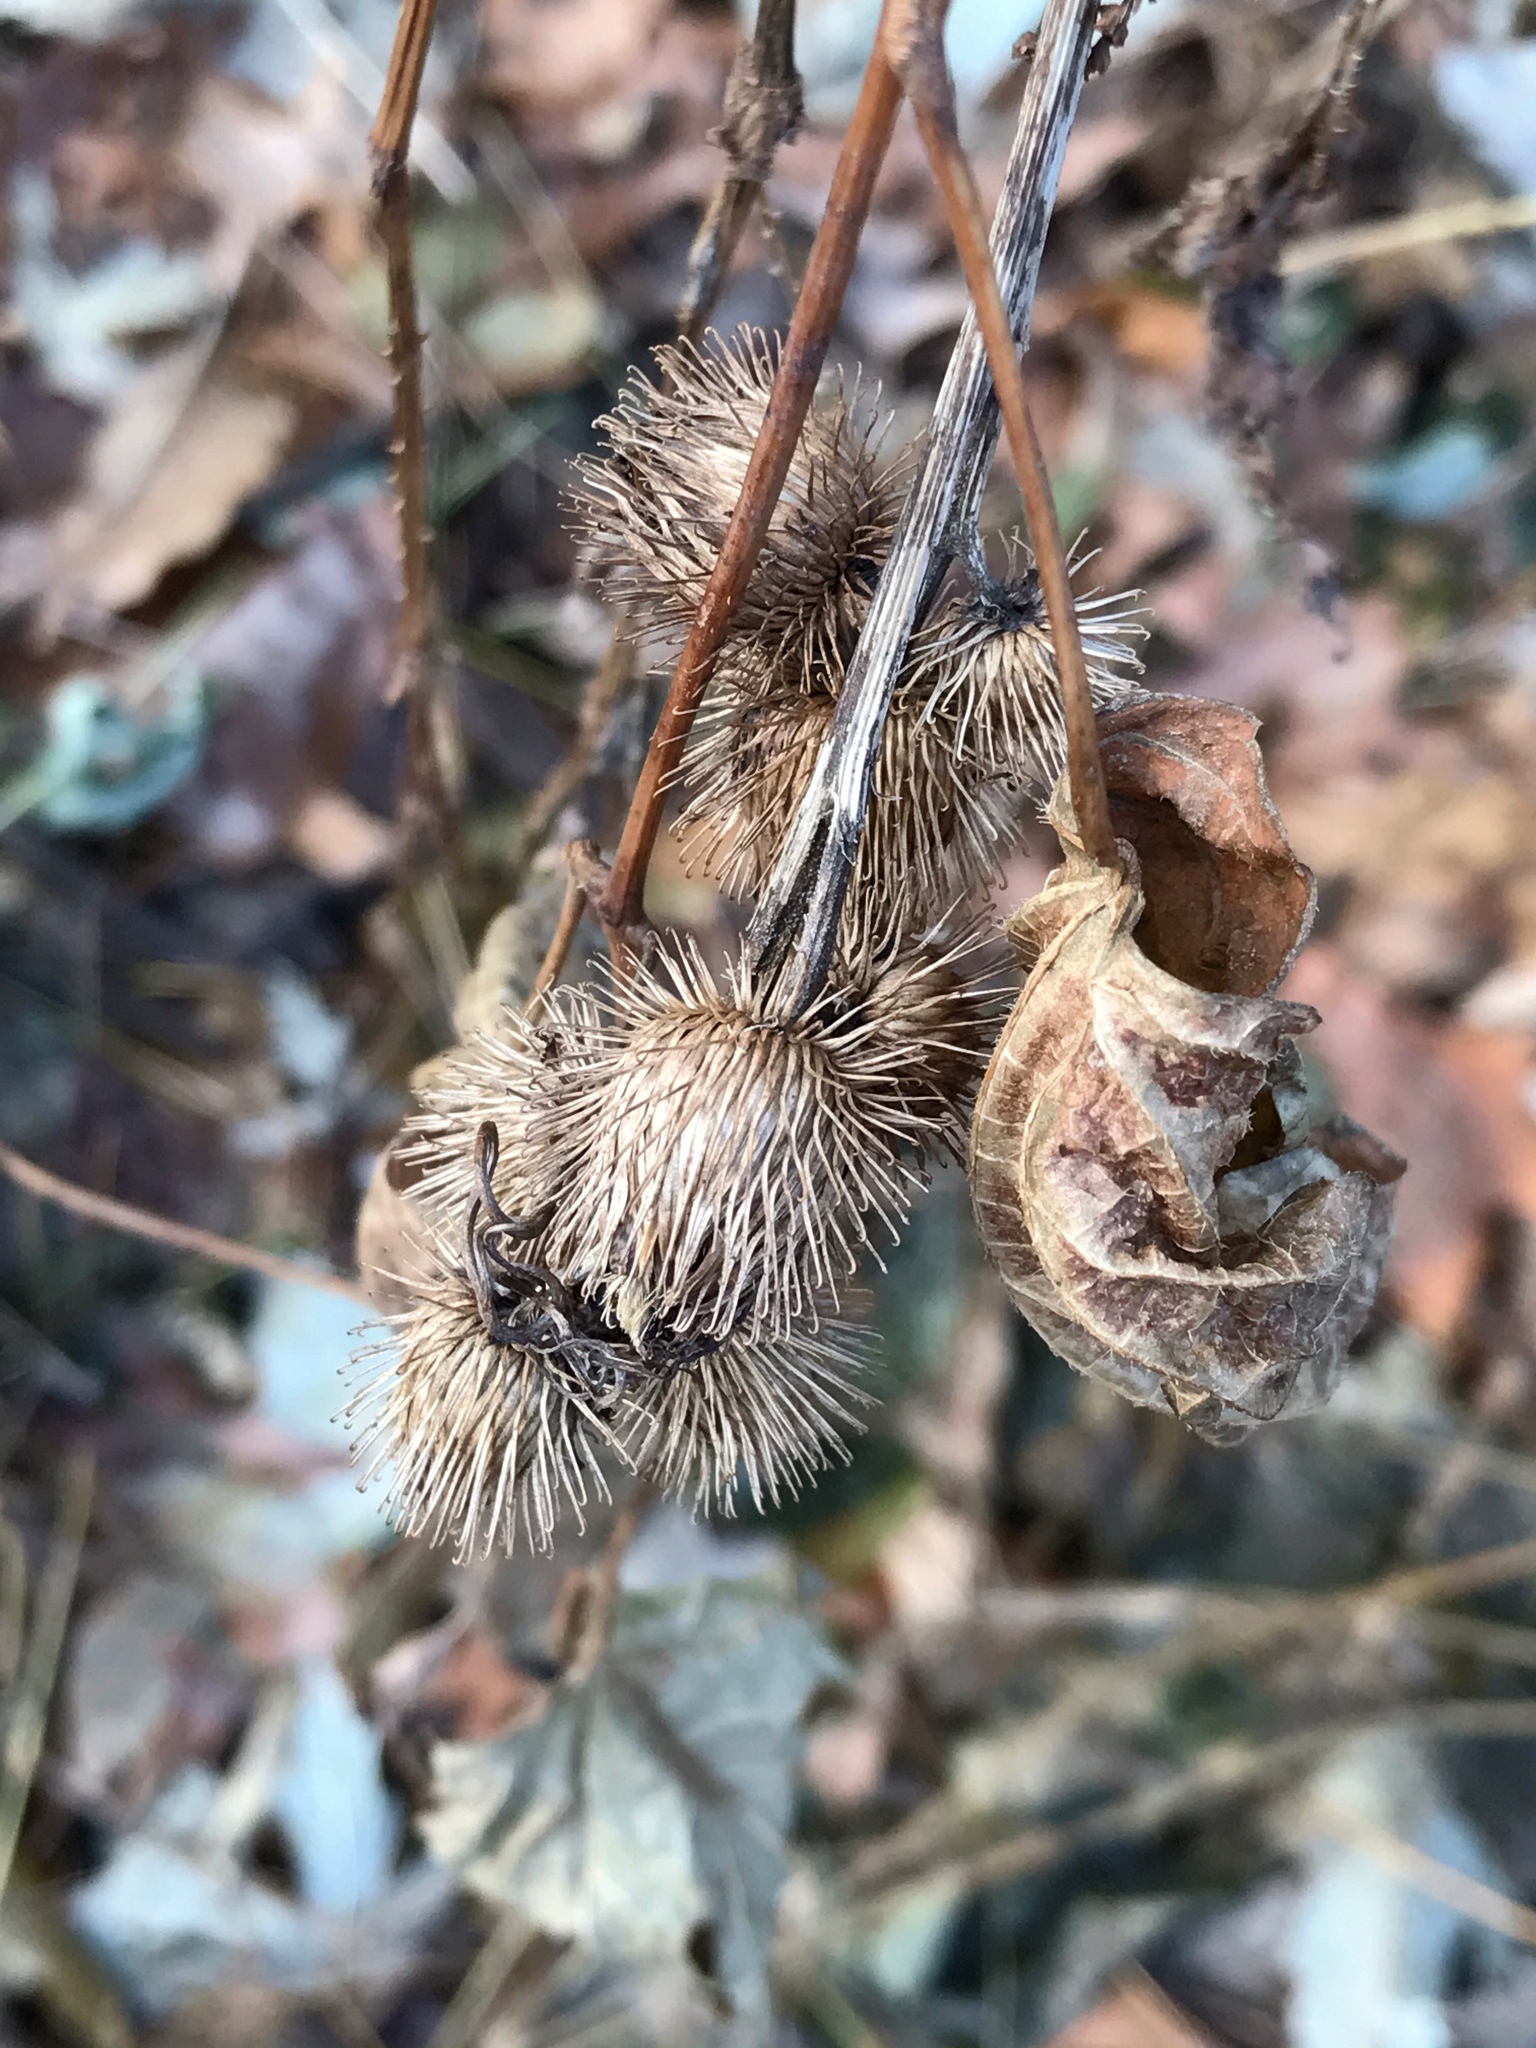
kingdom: Plantae
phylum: Tracheophyta
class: Magnoliopsida
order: Asterales
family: Asteraceae
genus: Arctium
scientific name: Arctium minus
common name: Lesser burdock
